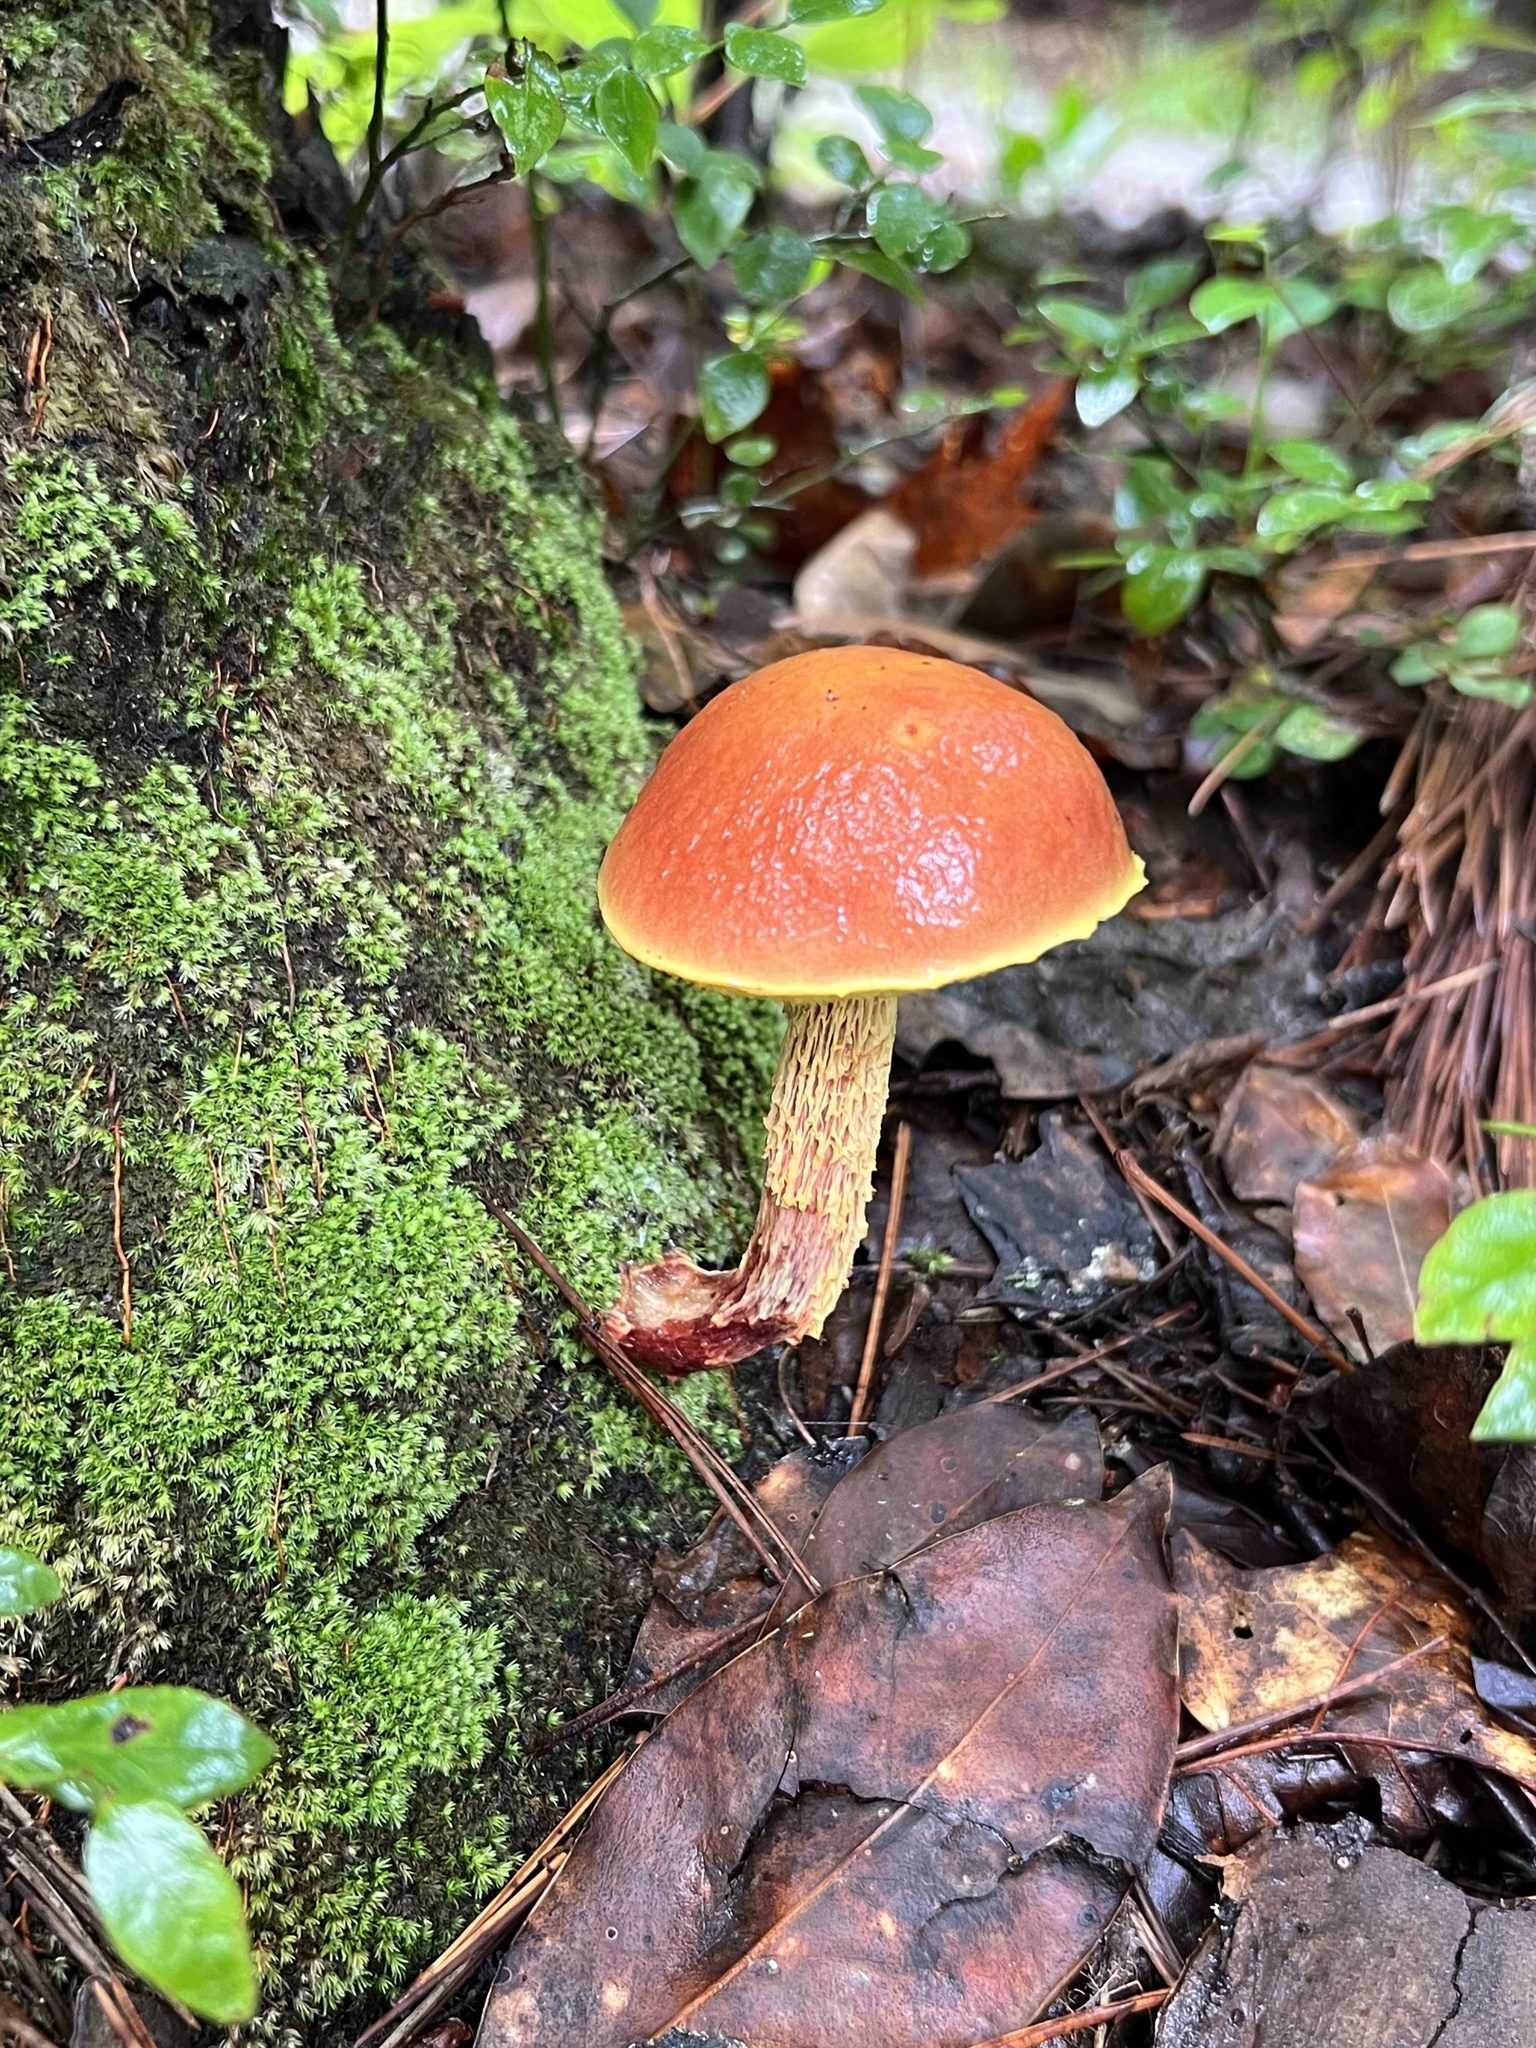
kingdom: Fungi
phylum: Basidiomycota
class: Agaricomycetes
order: Boletales
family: Boletaceae
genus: Aureoboletus
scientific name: Aureoboletus betula
